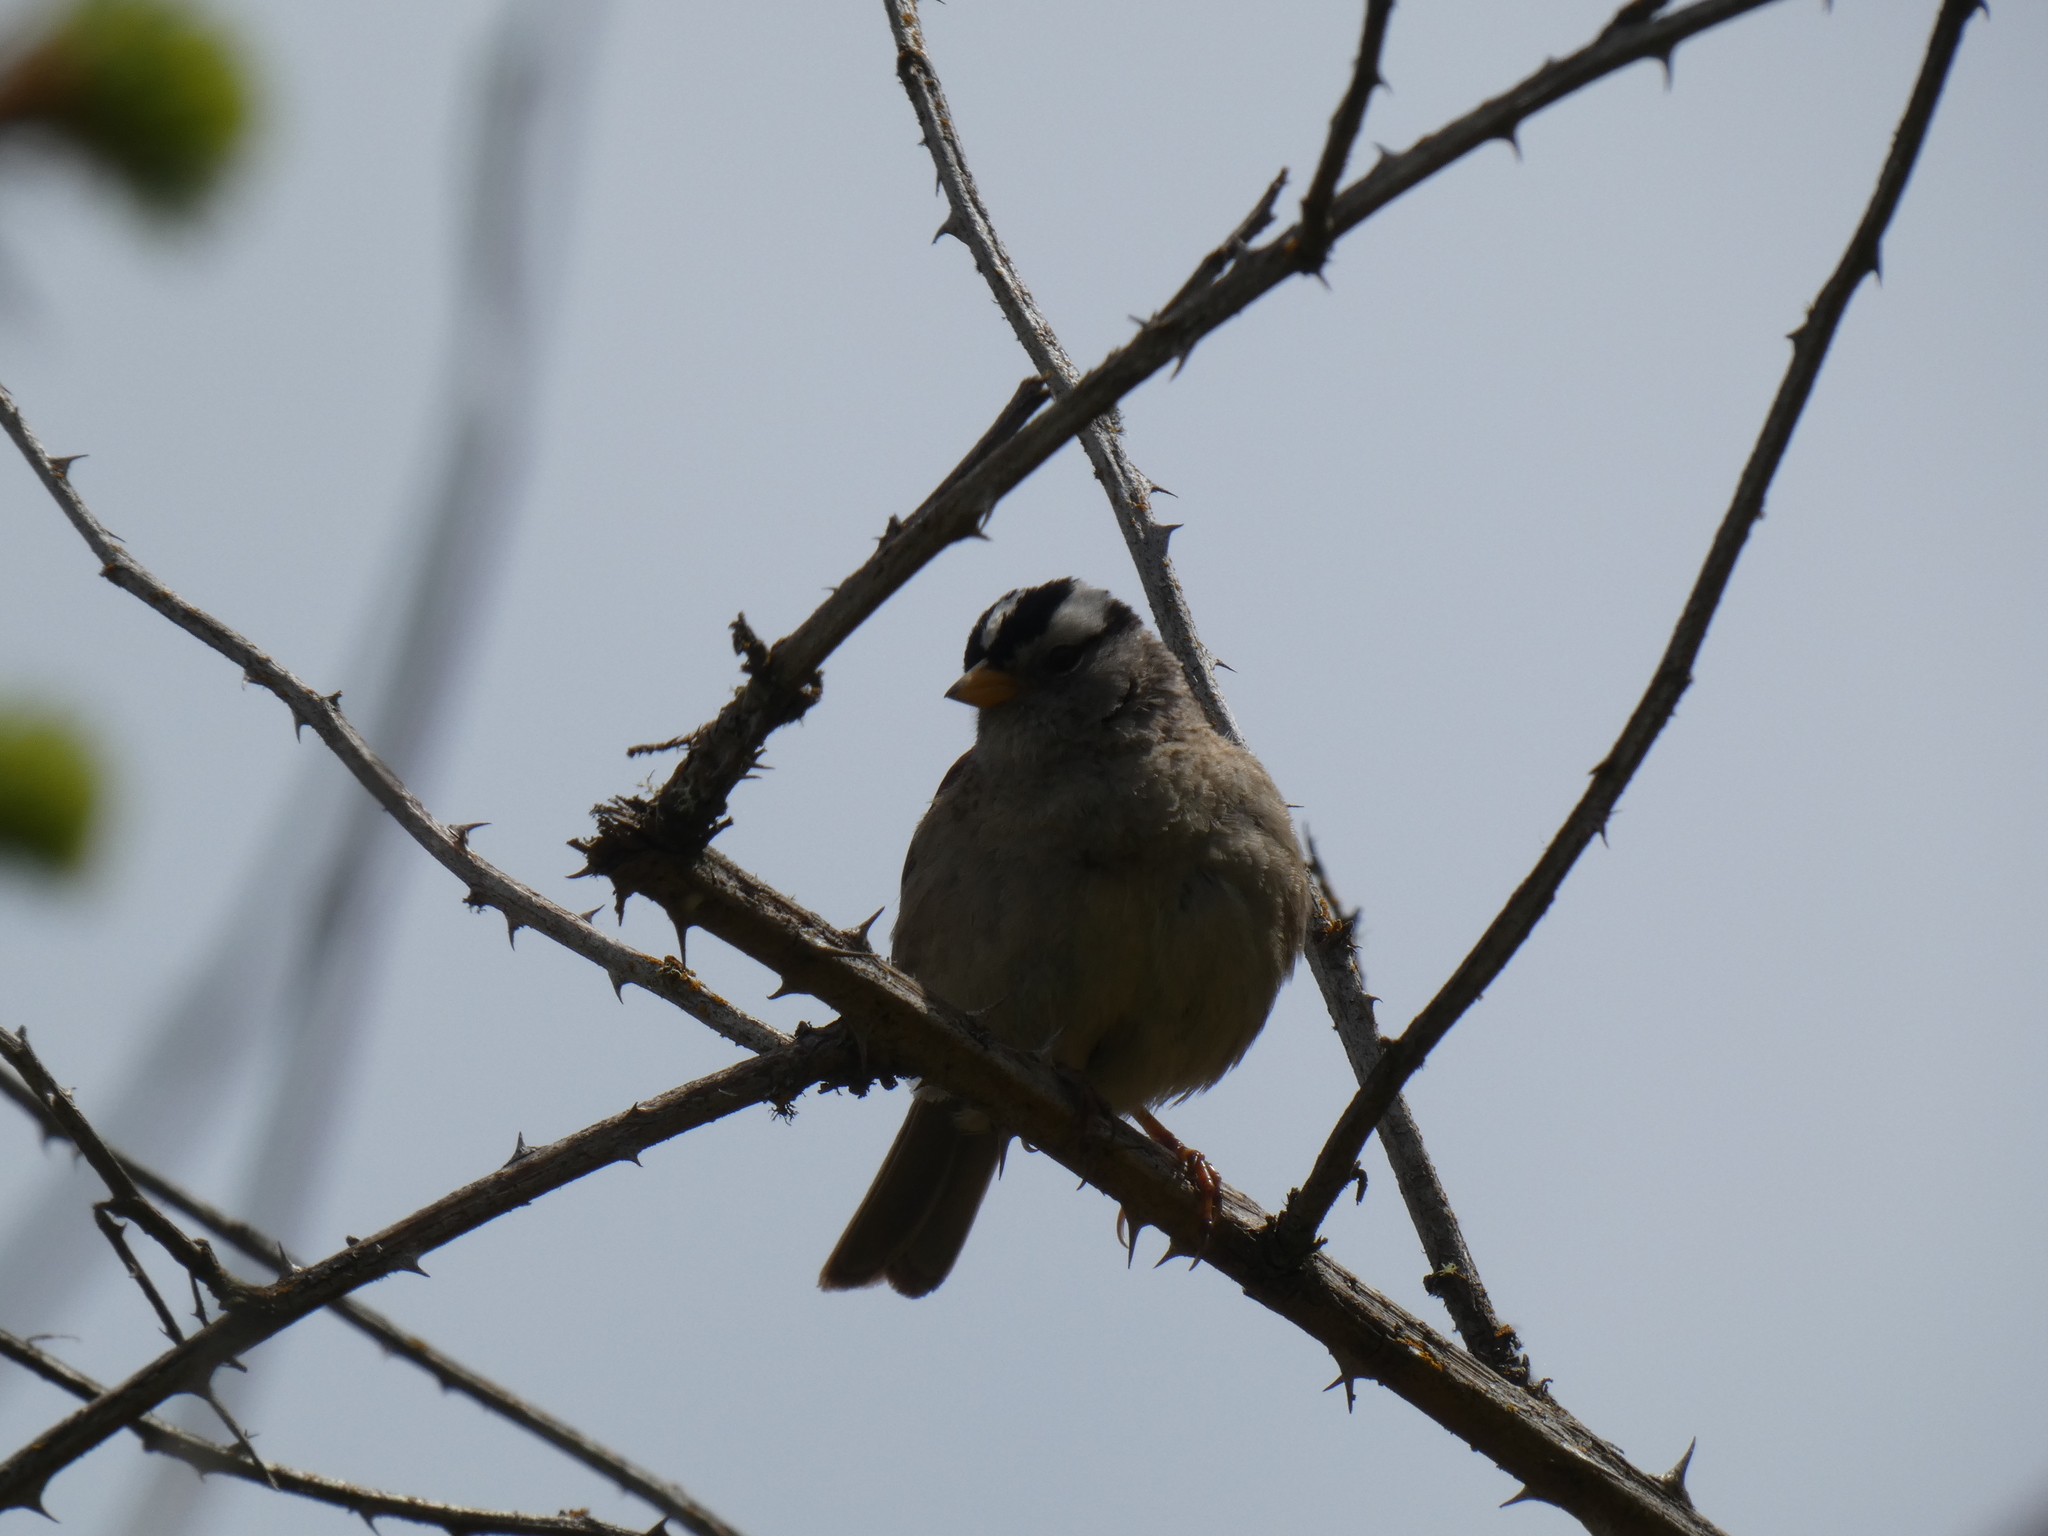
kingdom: Animalia
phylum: Chordata
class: Aves
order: Passeriformes
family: Passerellidae
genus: Zonotrichia
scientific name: Zonotrichia leucophrys
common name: White-crowned sparrow
